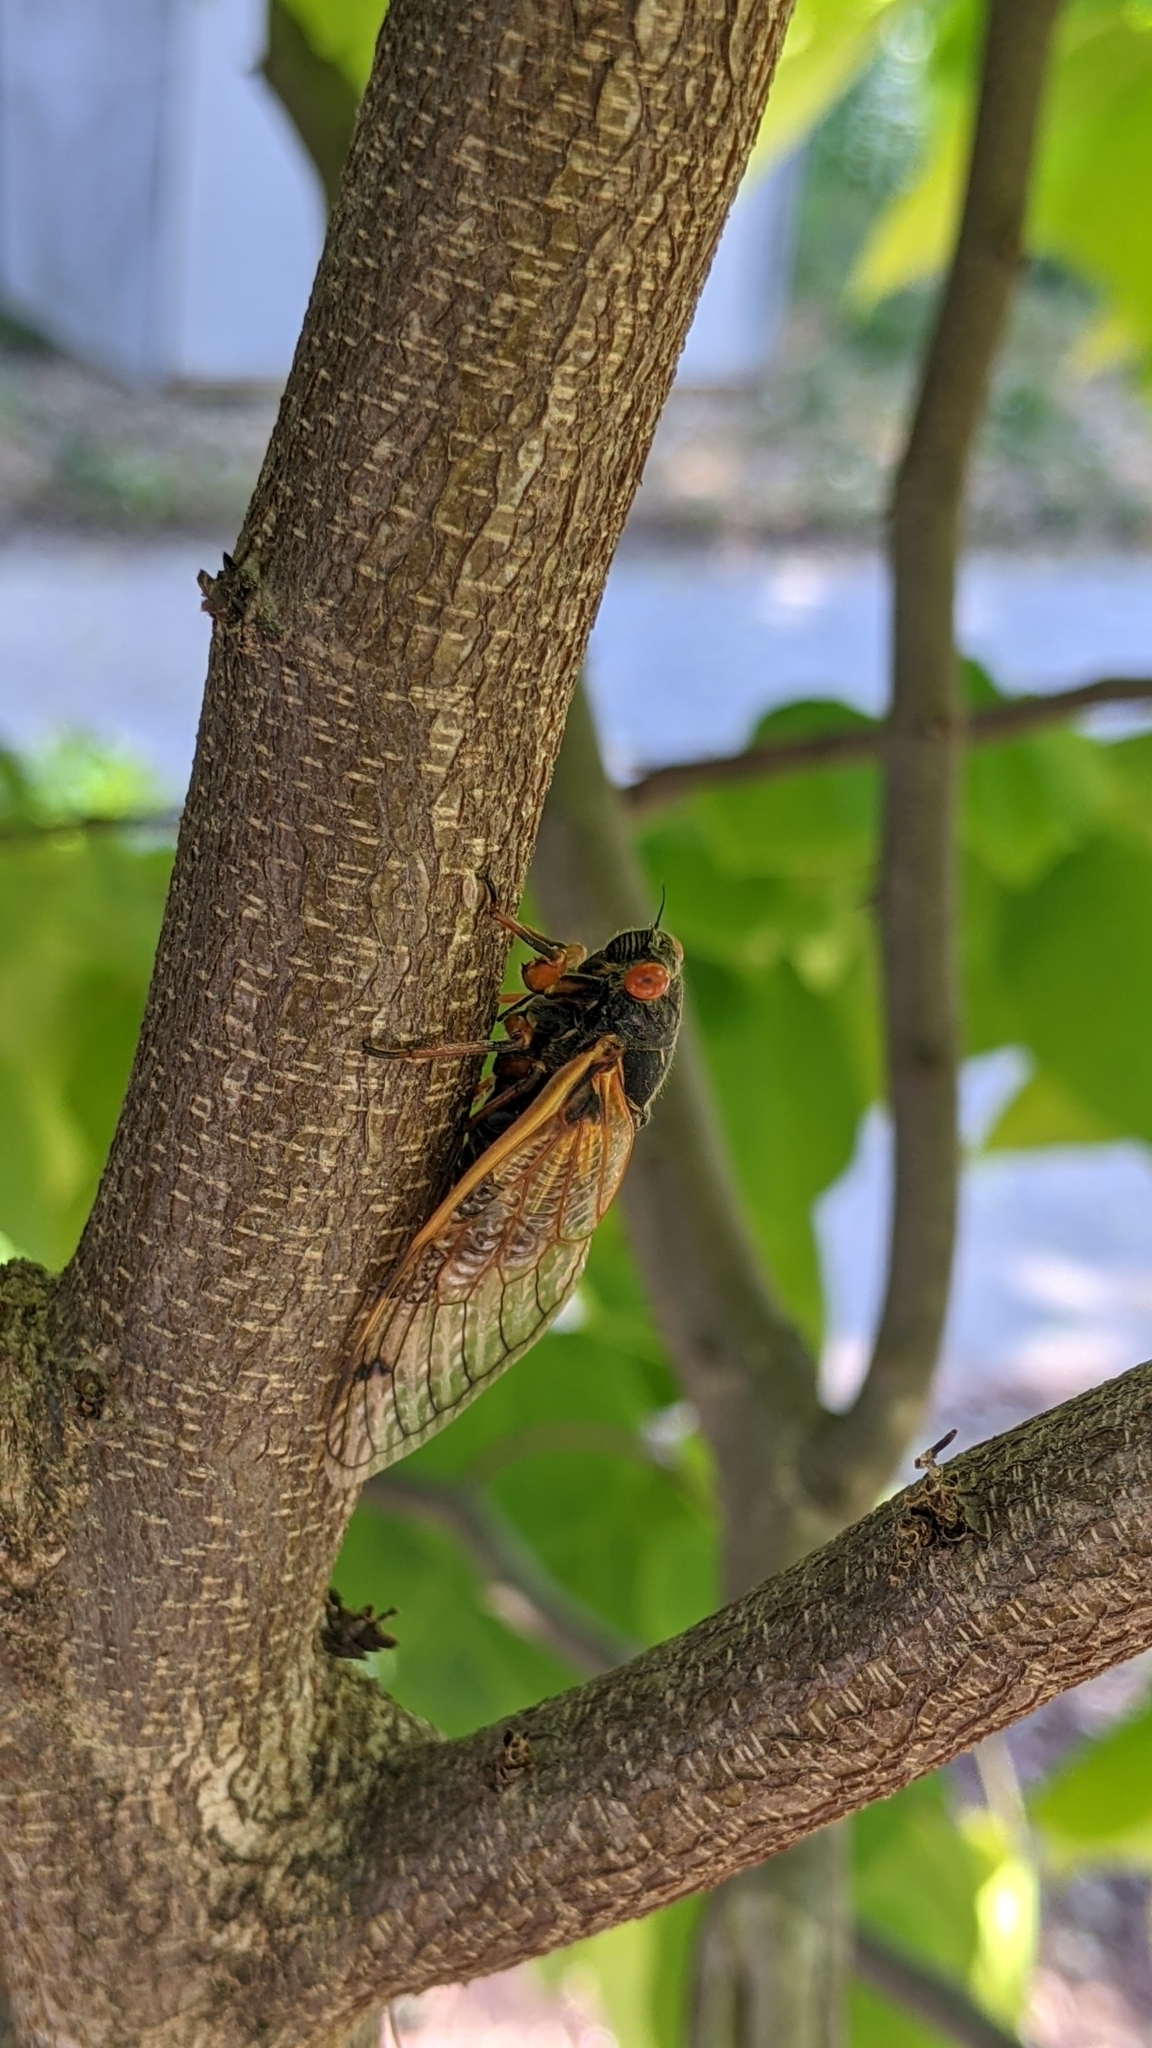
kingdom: Animalia
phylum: Arthropoda
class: Insecta
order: Hemiptera
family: Cicadidae
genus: Magicicada
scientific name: Magicicada
